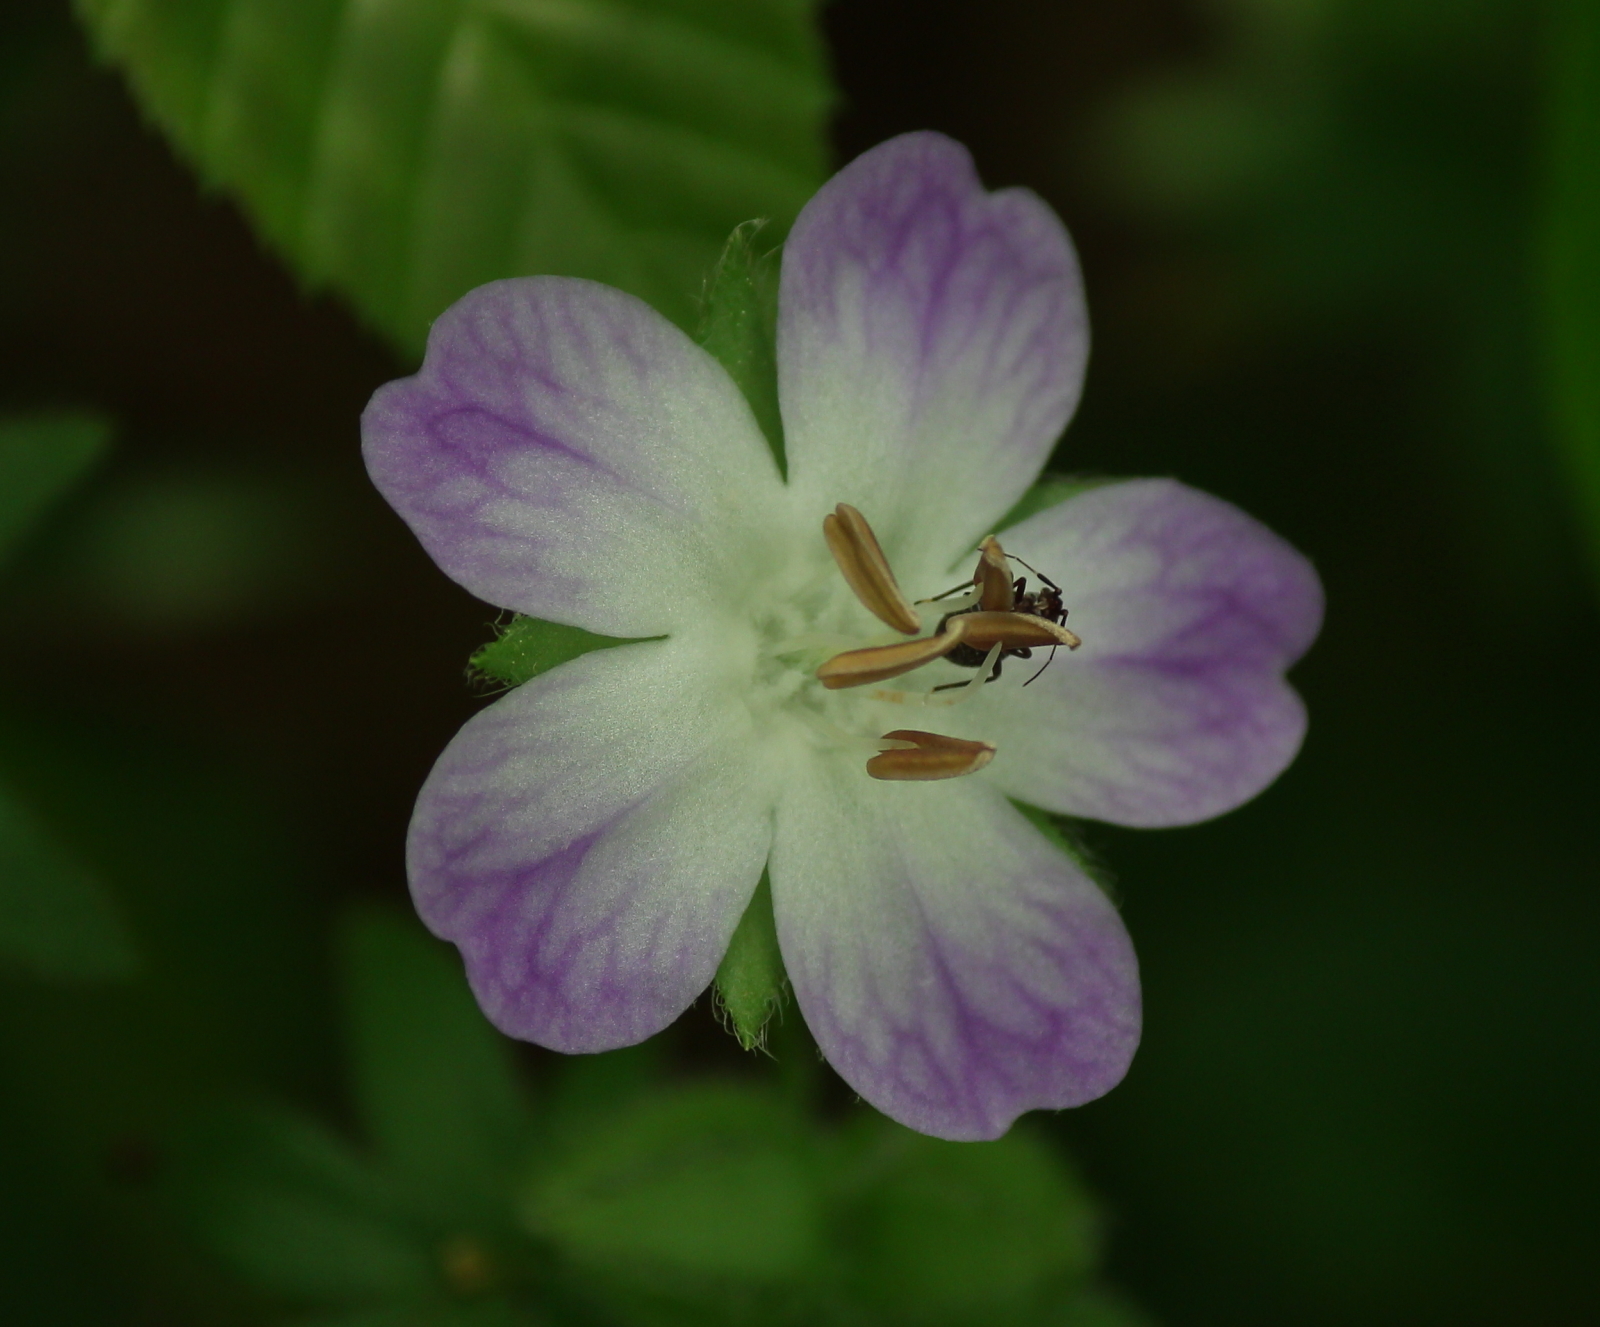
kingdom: Plantae
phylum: Tracheophyta
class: Magnoliopsida
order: Boraginales
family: Hydrophyllaceae
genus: Nemophila
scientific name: Nemophila phacelioides
